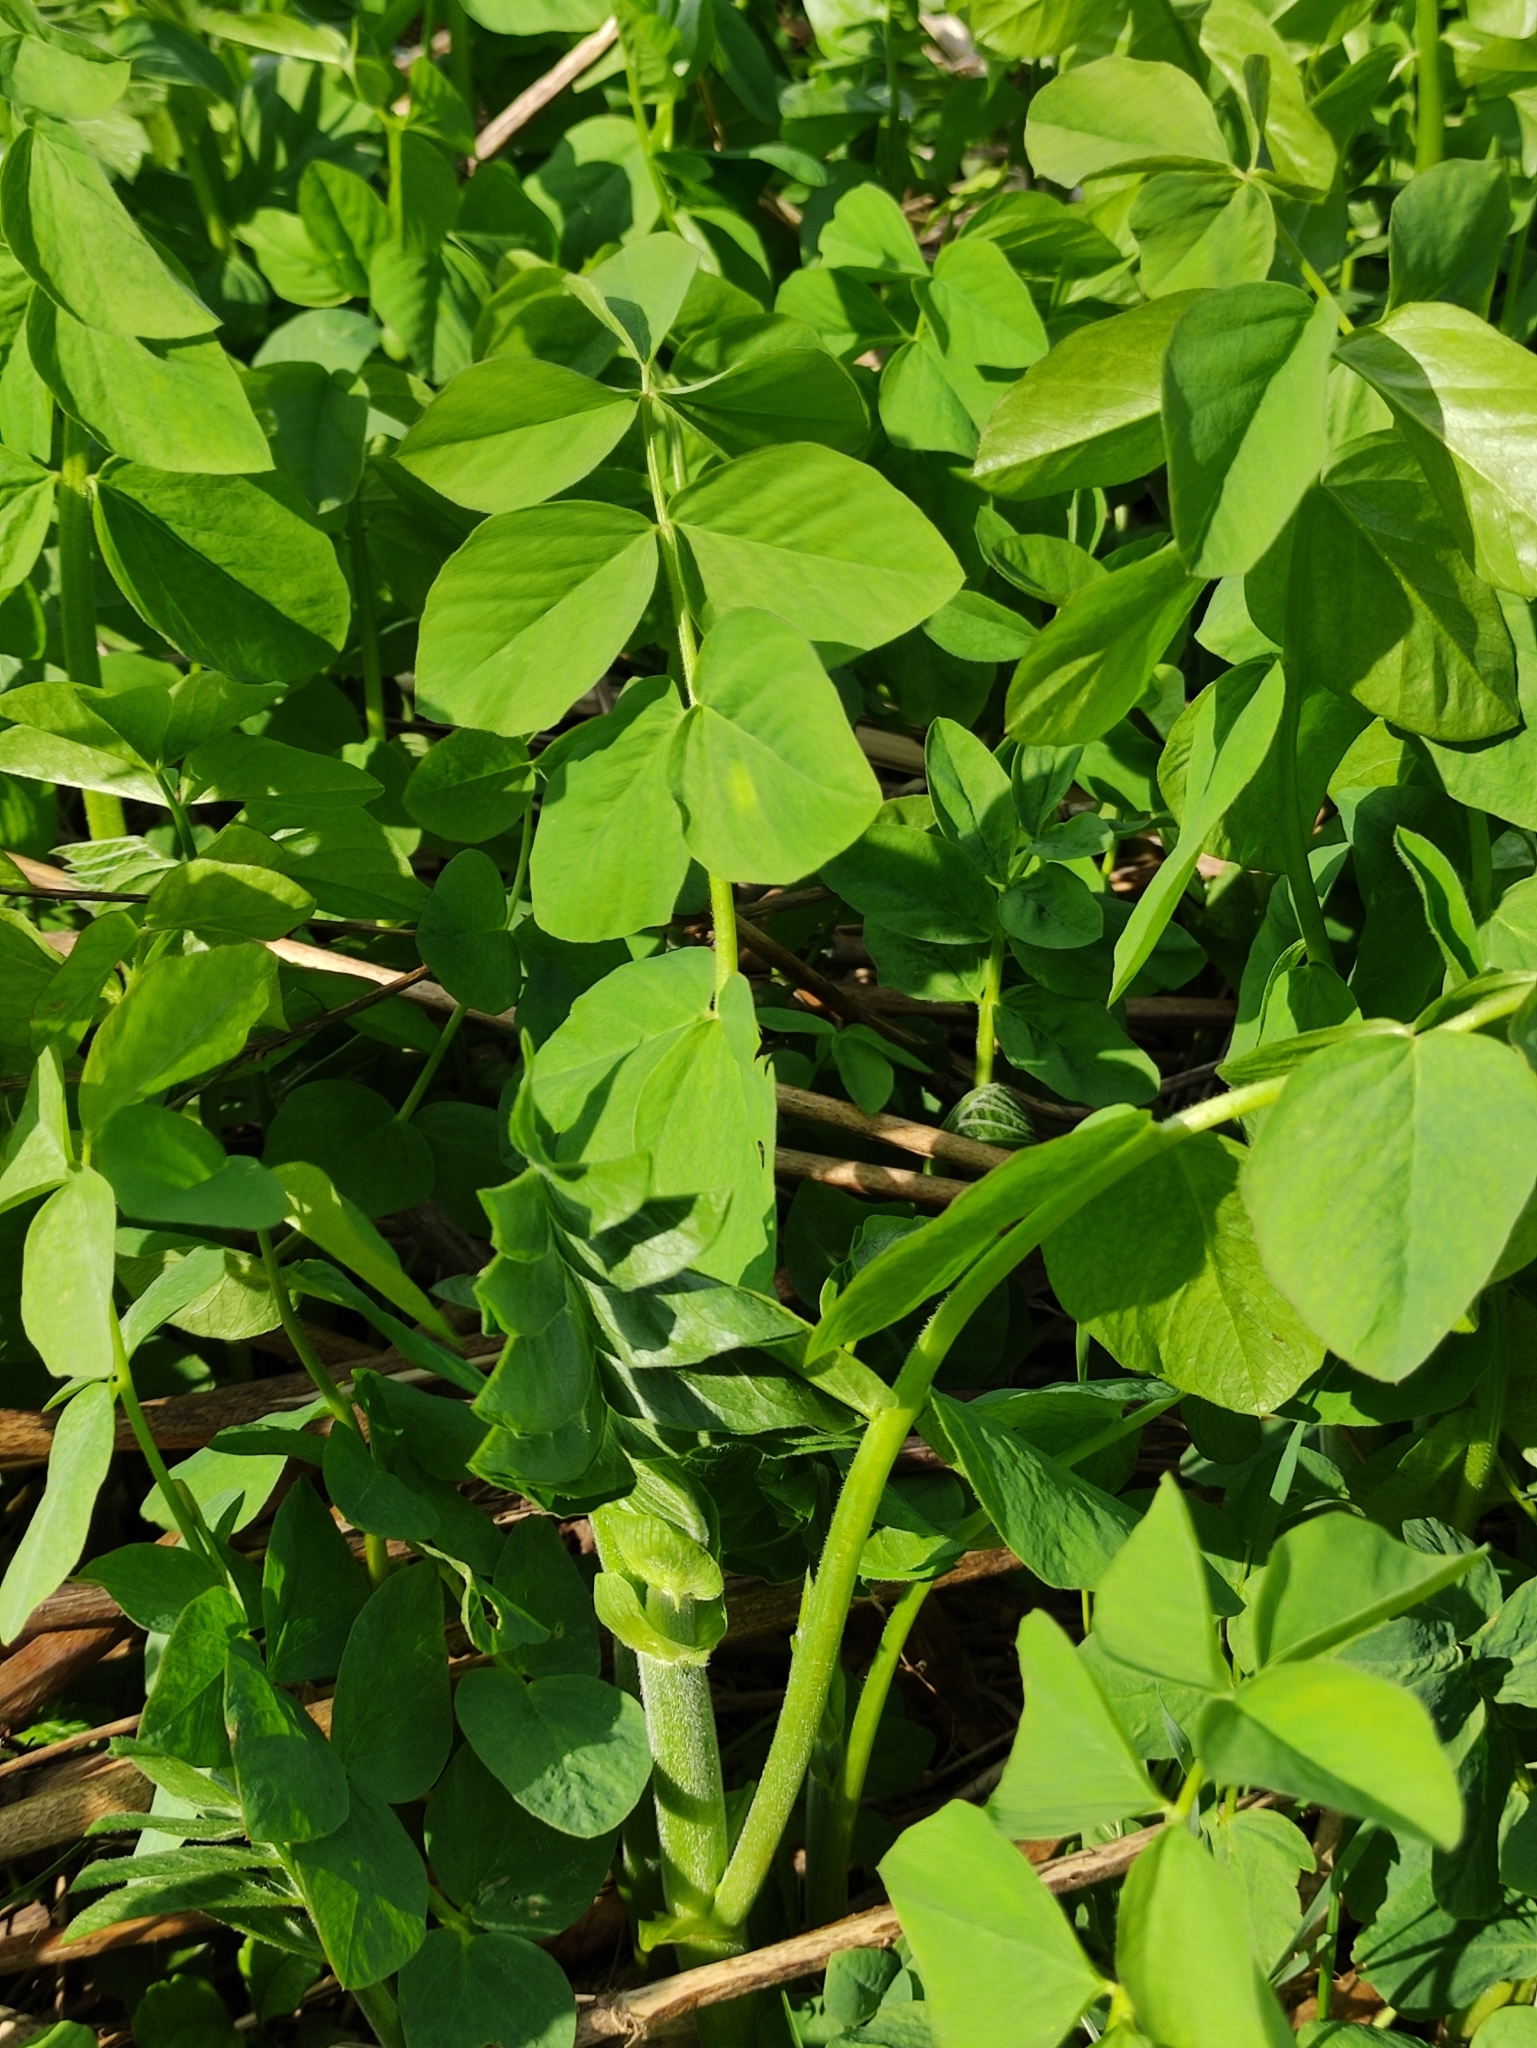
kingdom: Plantae
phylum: Tracheophyta
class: Magnoliopsida
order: Fabales
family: Fabaceae
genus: Galega
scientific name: Galega orientalis
